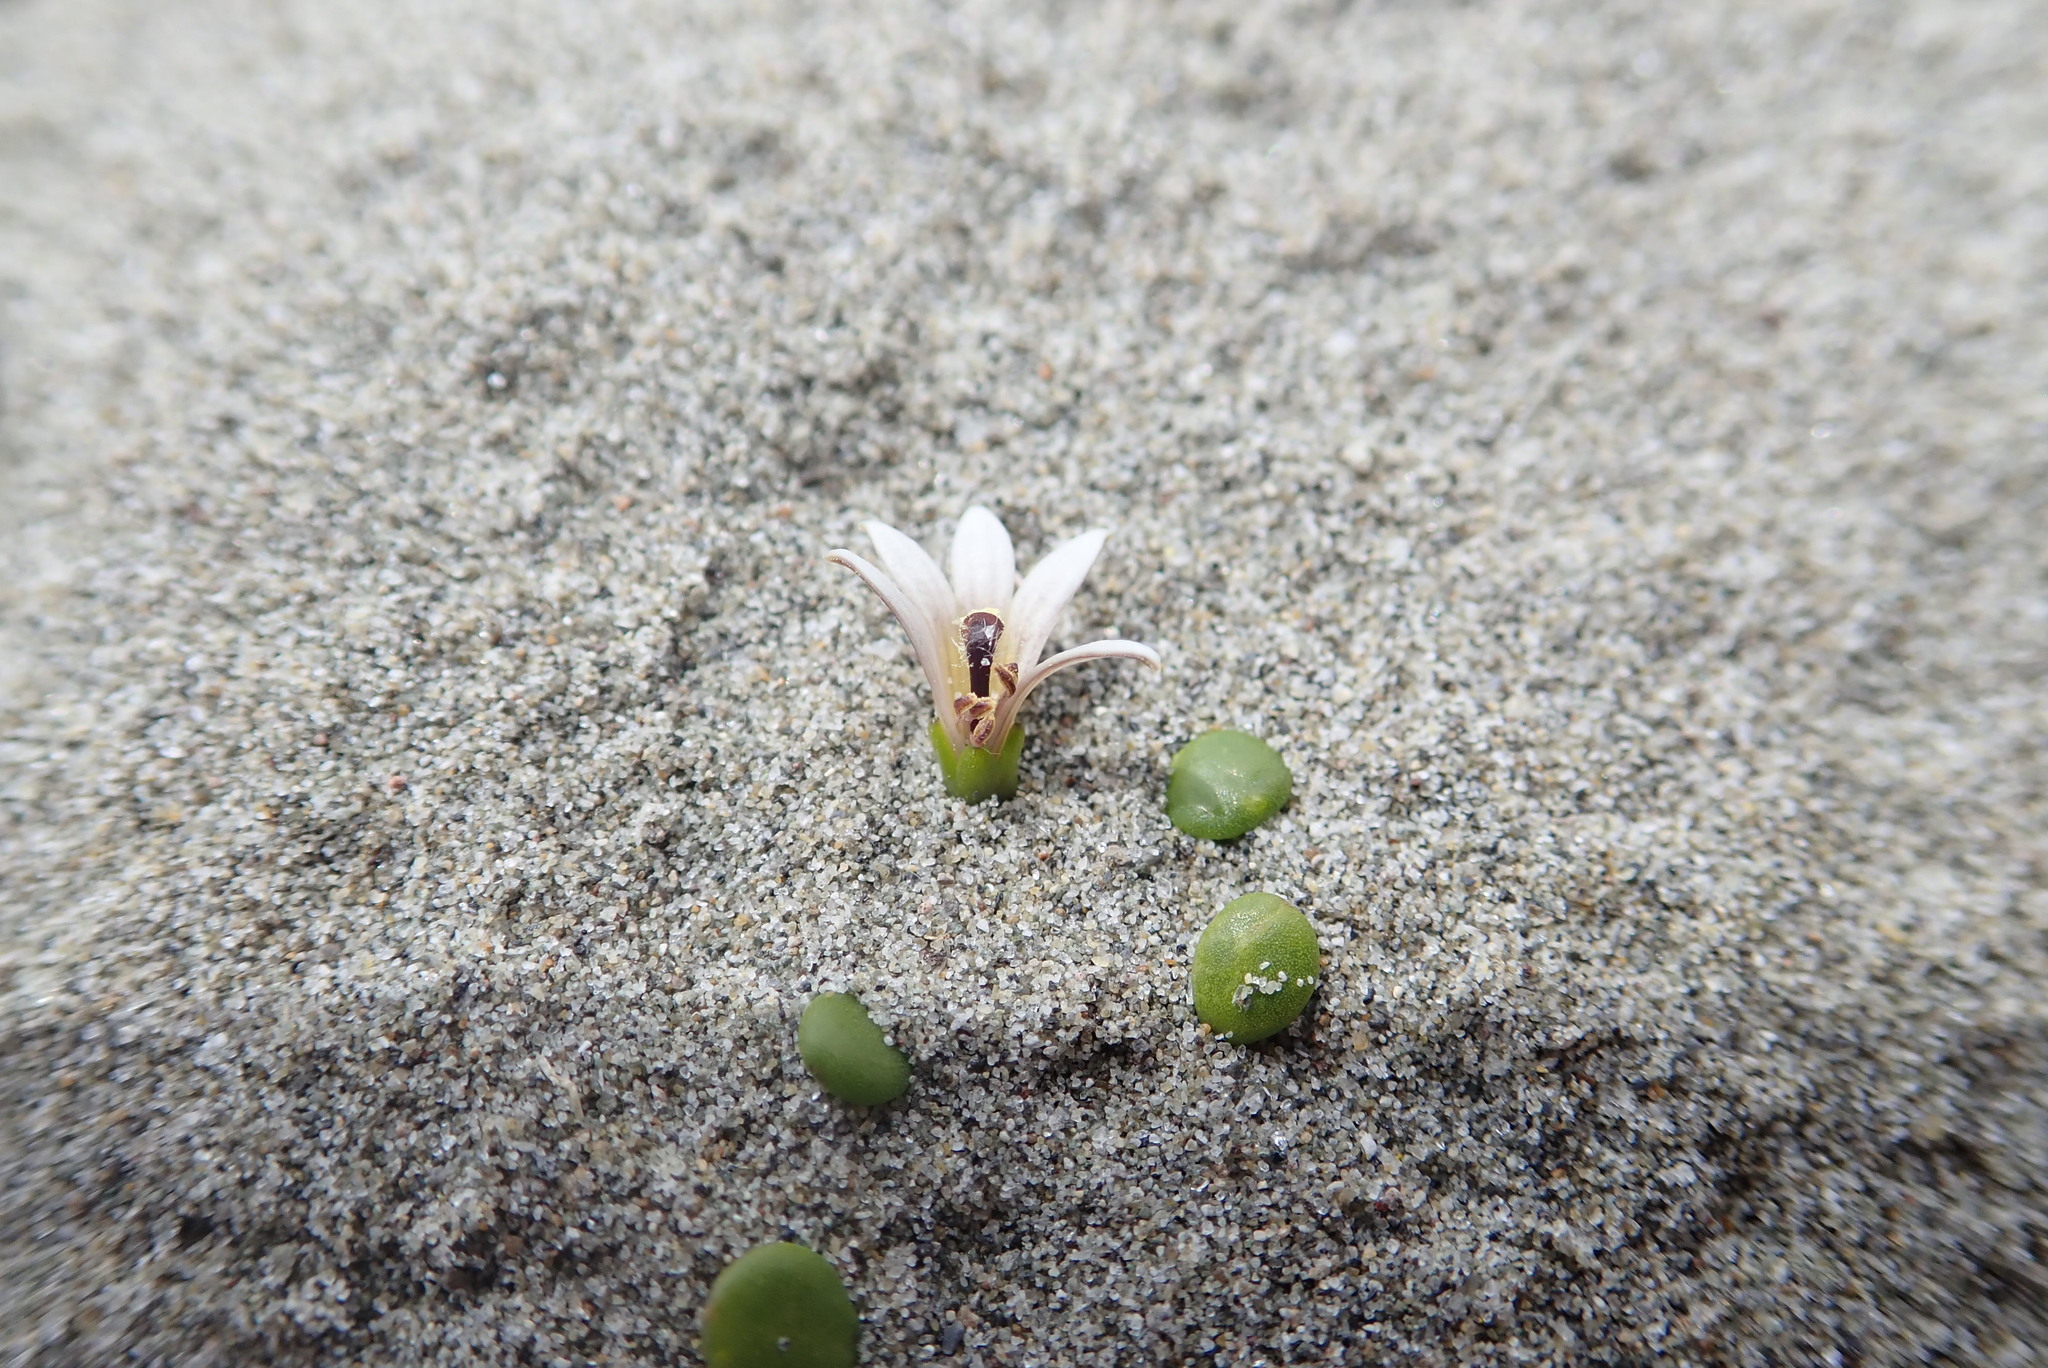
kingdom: Plantae
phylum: Tracheophyta
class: Magnoliopsida
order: Asterales
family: Goodeniaceae
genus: Goodenia
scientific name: Goodenia heenanii
